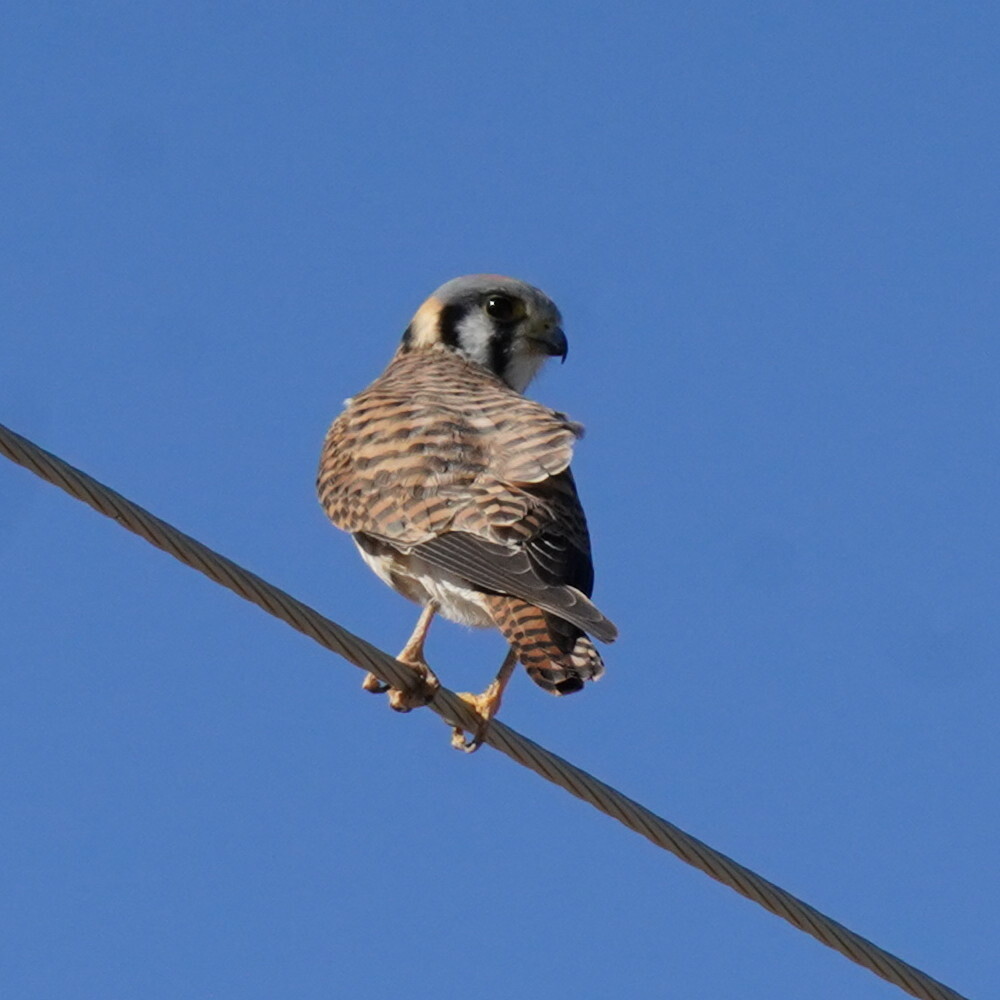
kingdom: Animalia
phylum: Chordata
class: Aves
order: Falconiformes
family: Falconidae
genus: Falco
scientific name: Falco sparverius
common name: American kestrel
